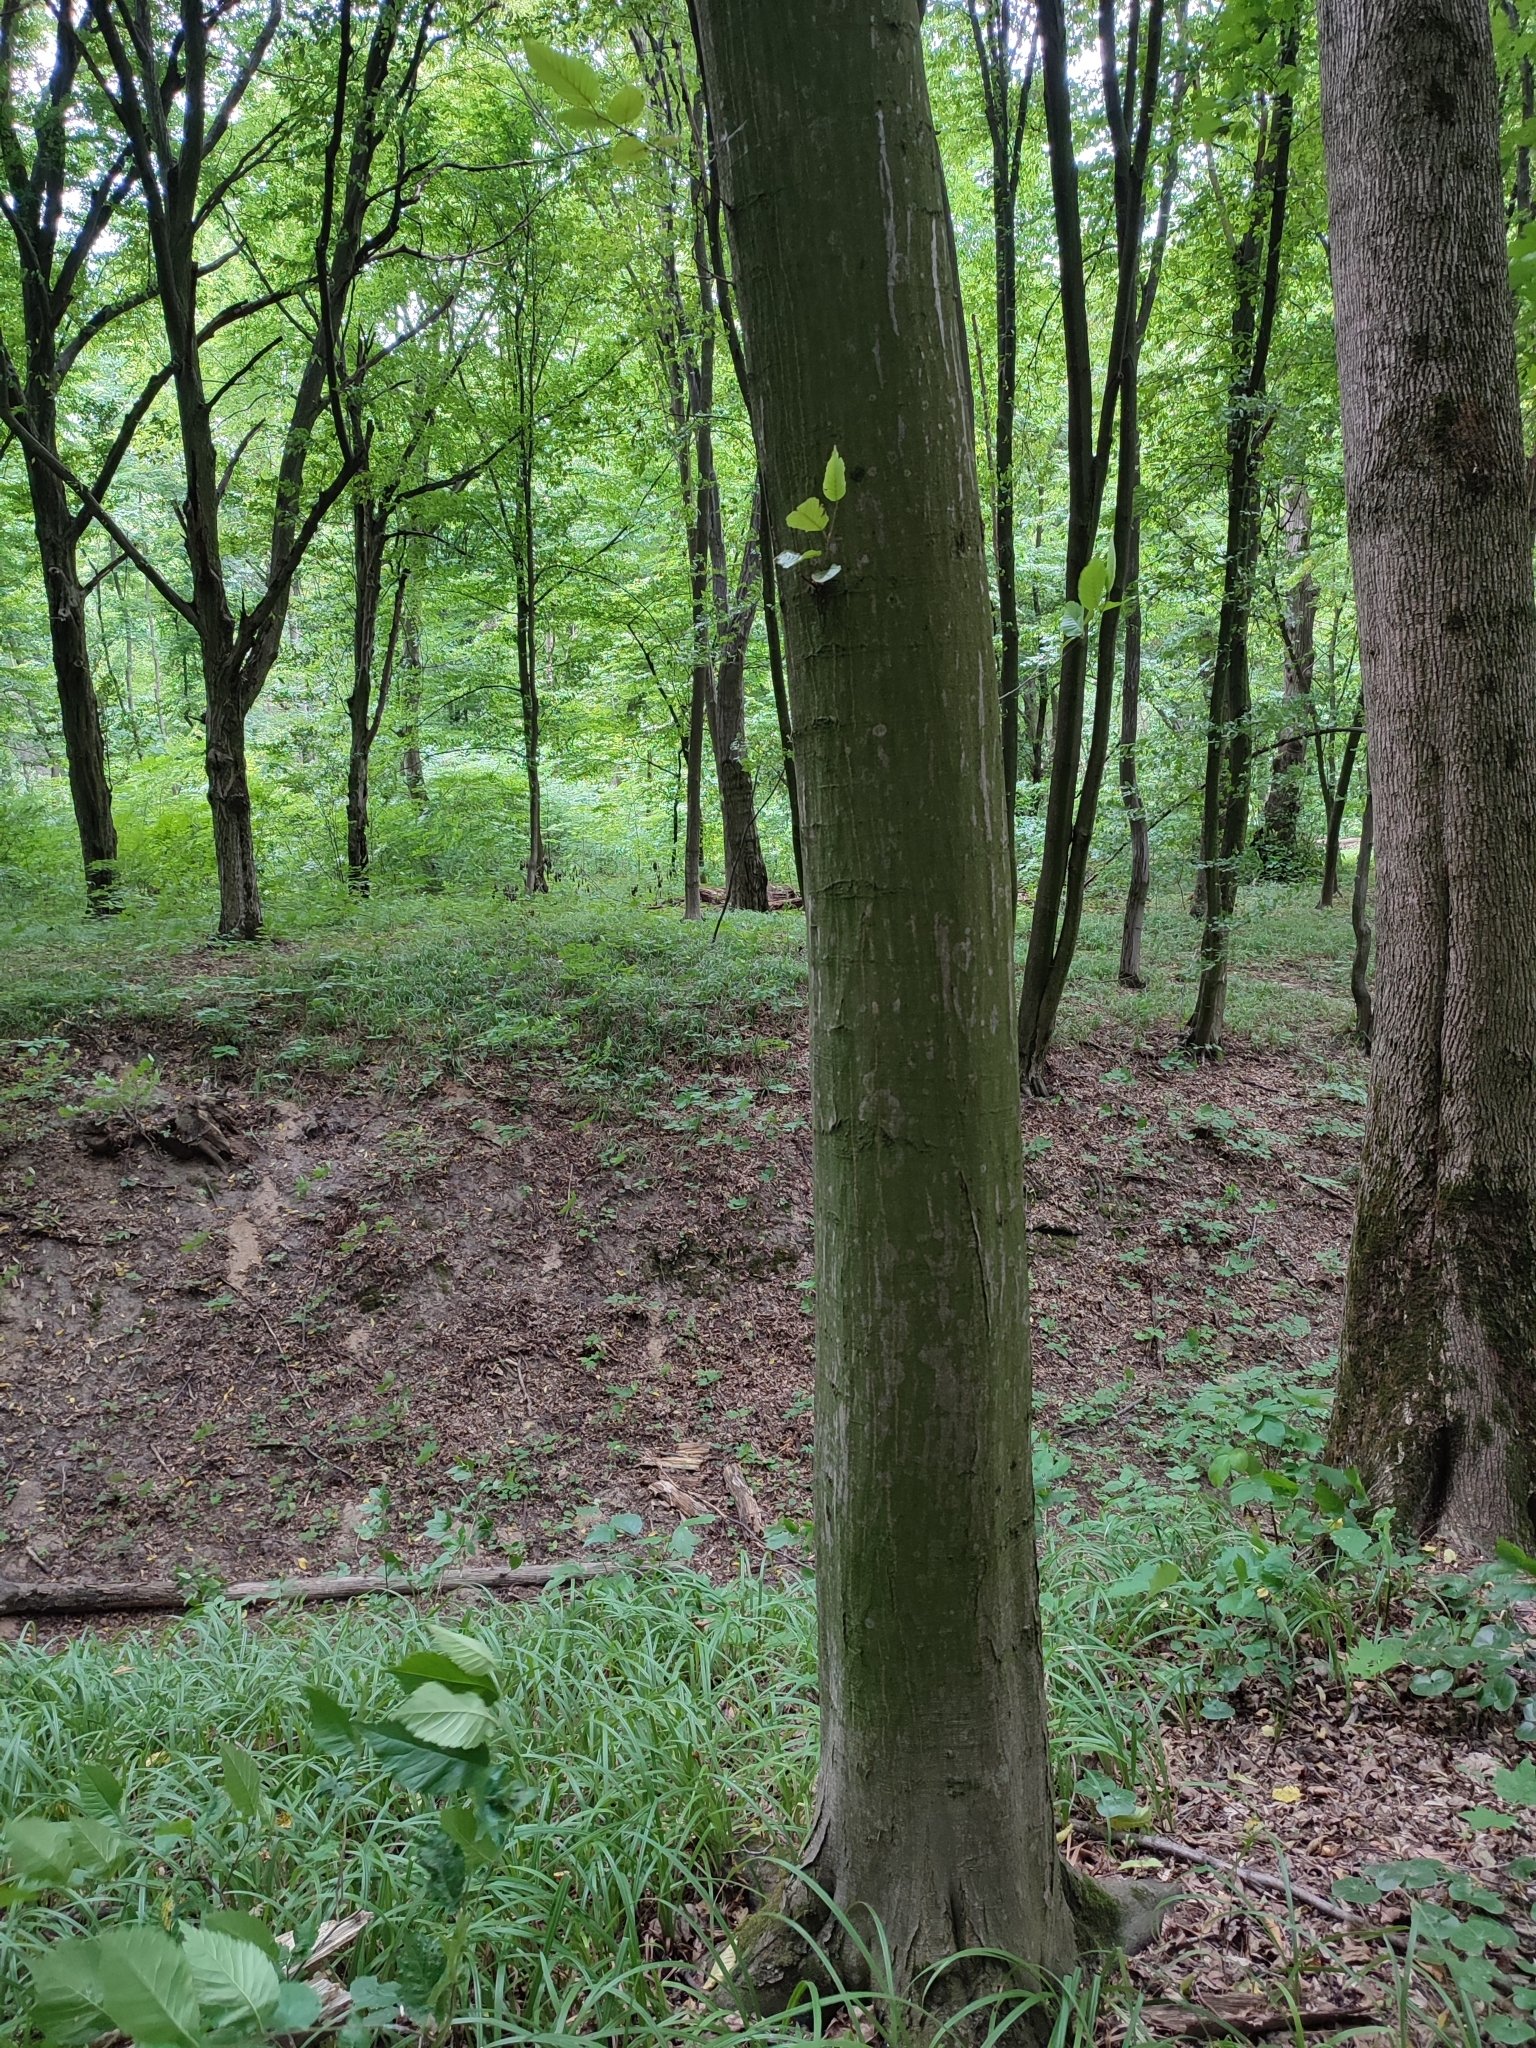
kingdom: Plantae
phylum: Tracheophyta
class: Magnoliopsida
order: Fagales
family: Betulaceae
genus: Carpinus
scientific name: Carpinus betulus
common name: Hornbeam
